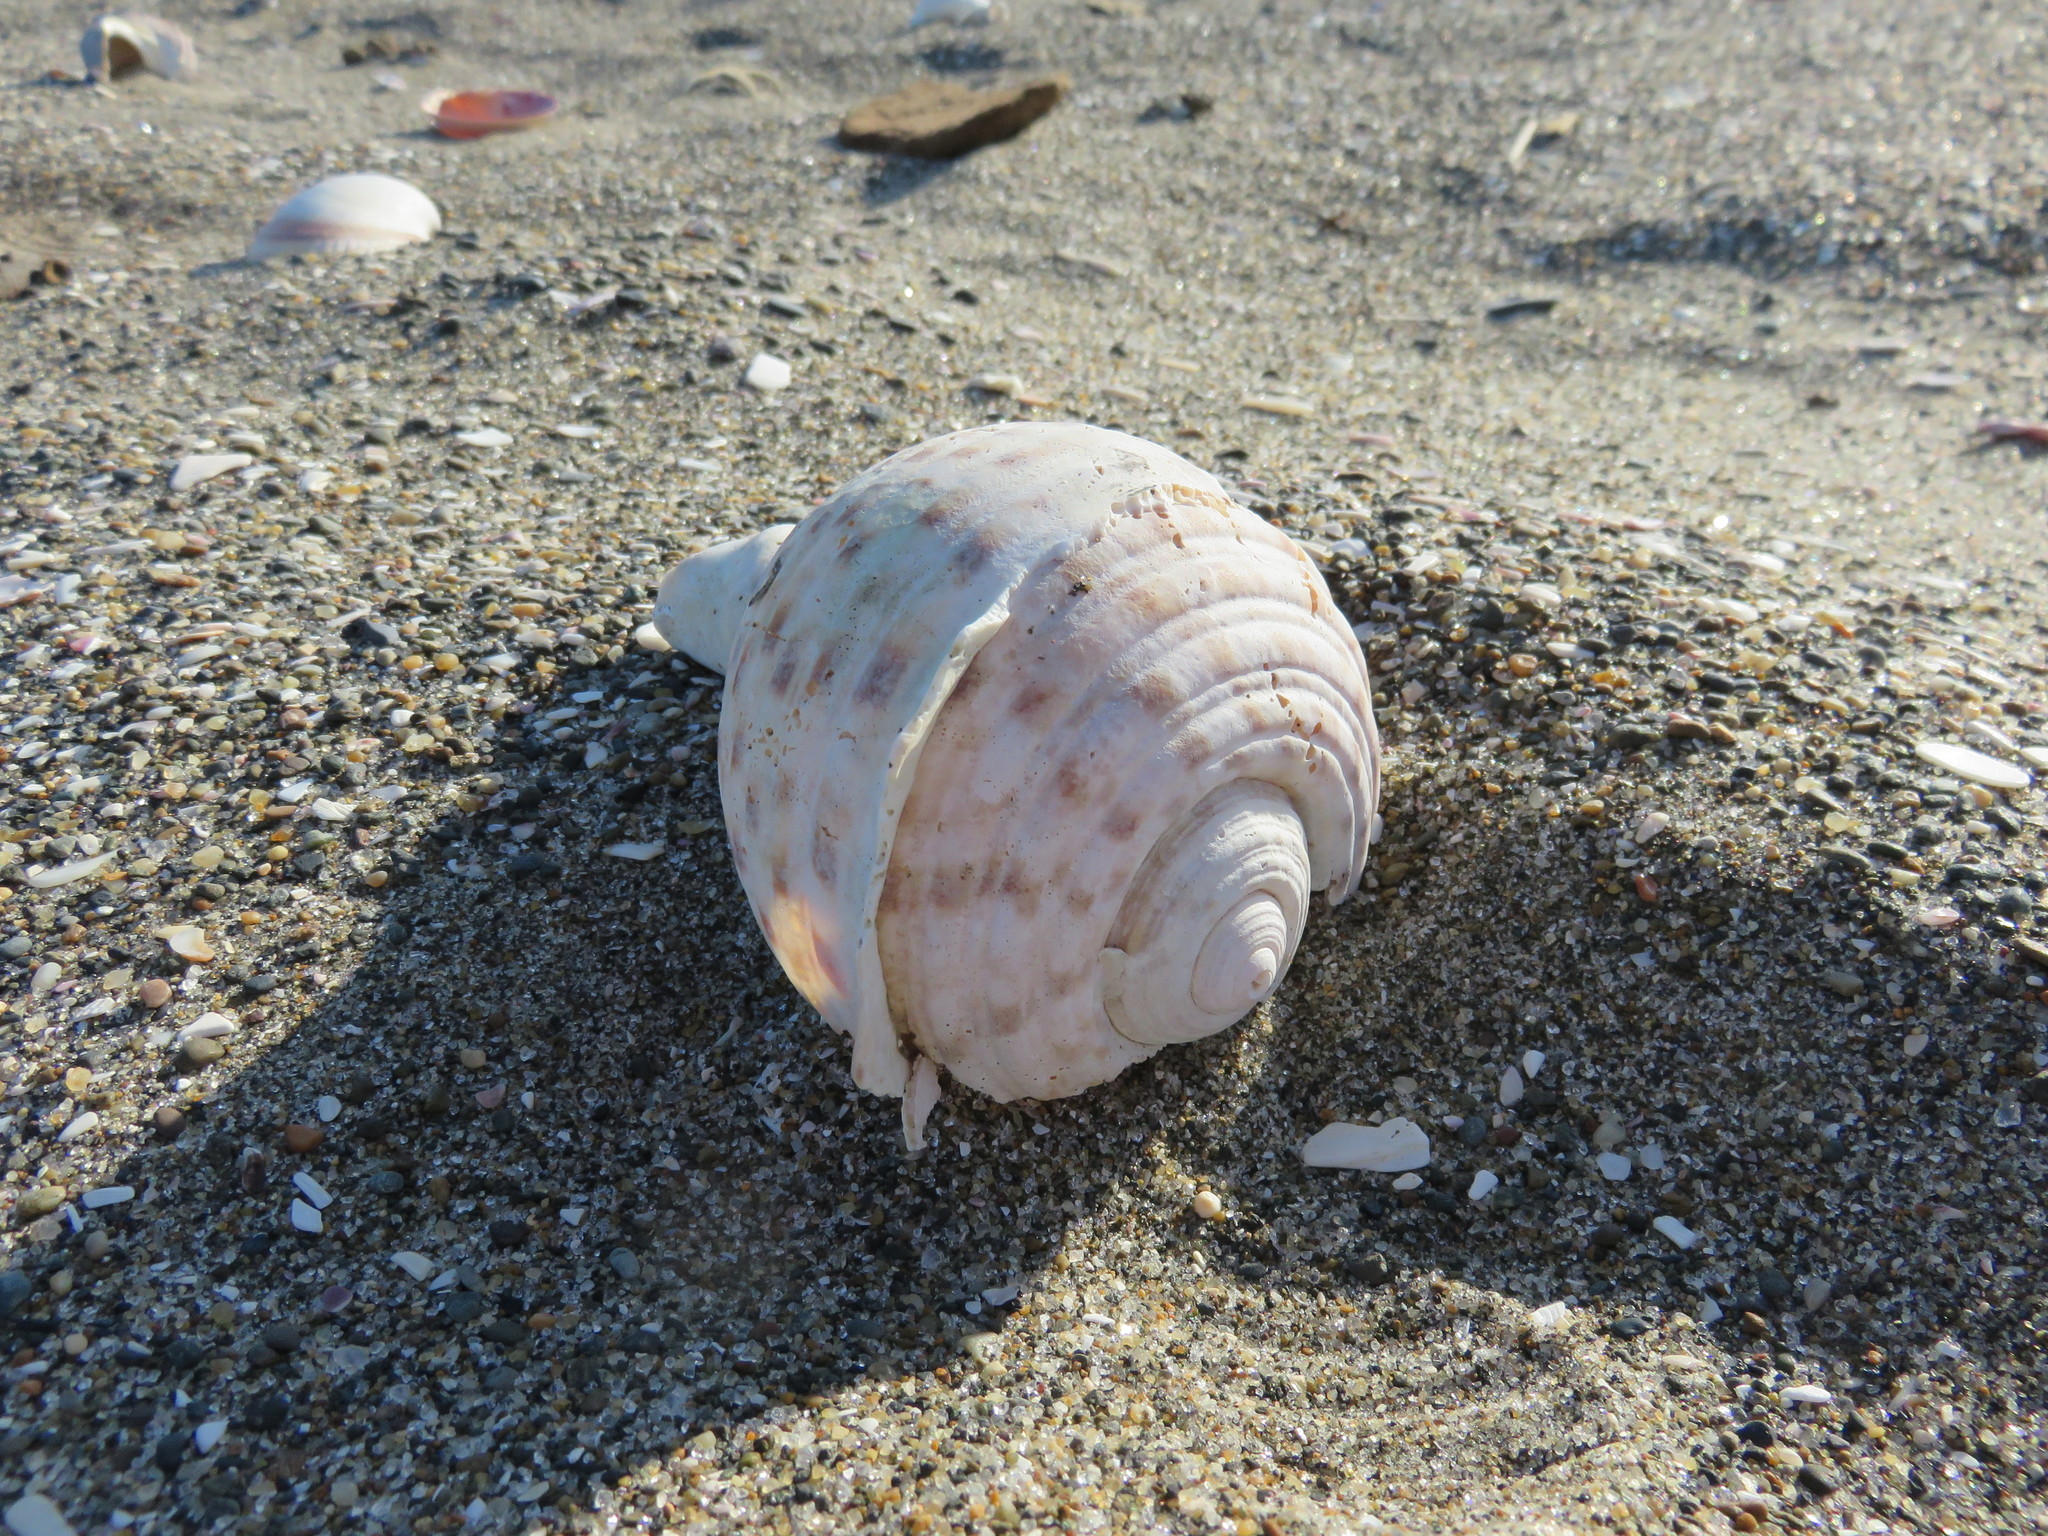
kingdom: Animalia
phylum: Mollusca
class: Gastropoda
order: Littorinimorpha
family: Tonnidae
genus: Tonna
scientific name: Tonna luteostoma
